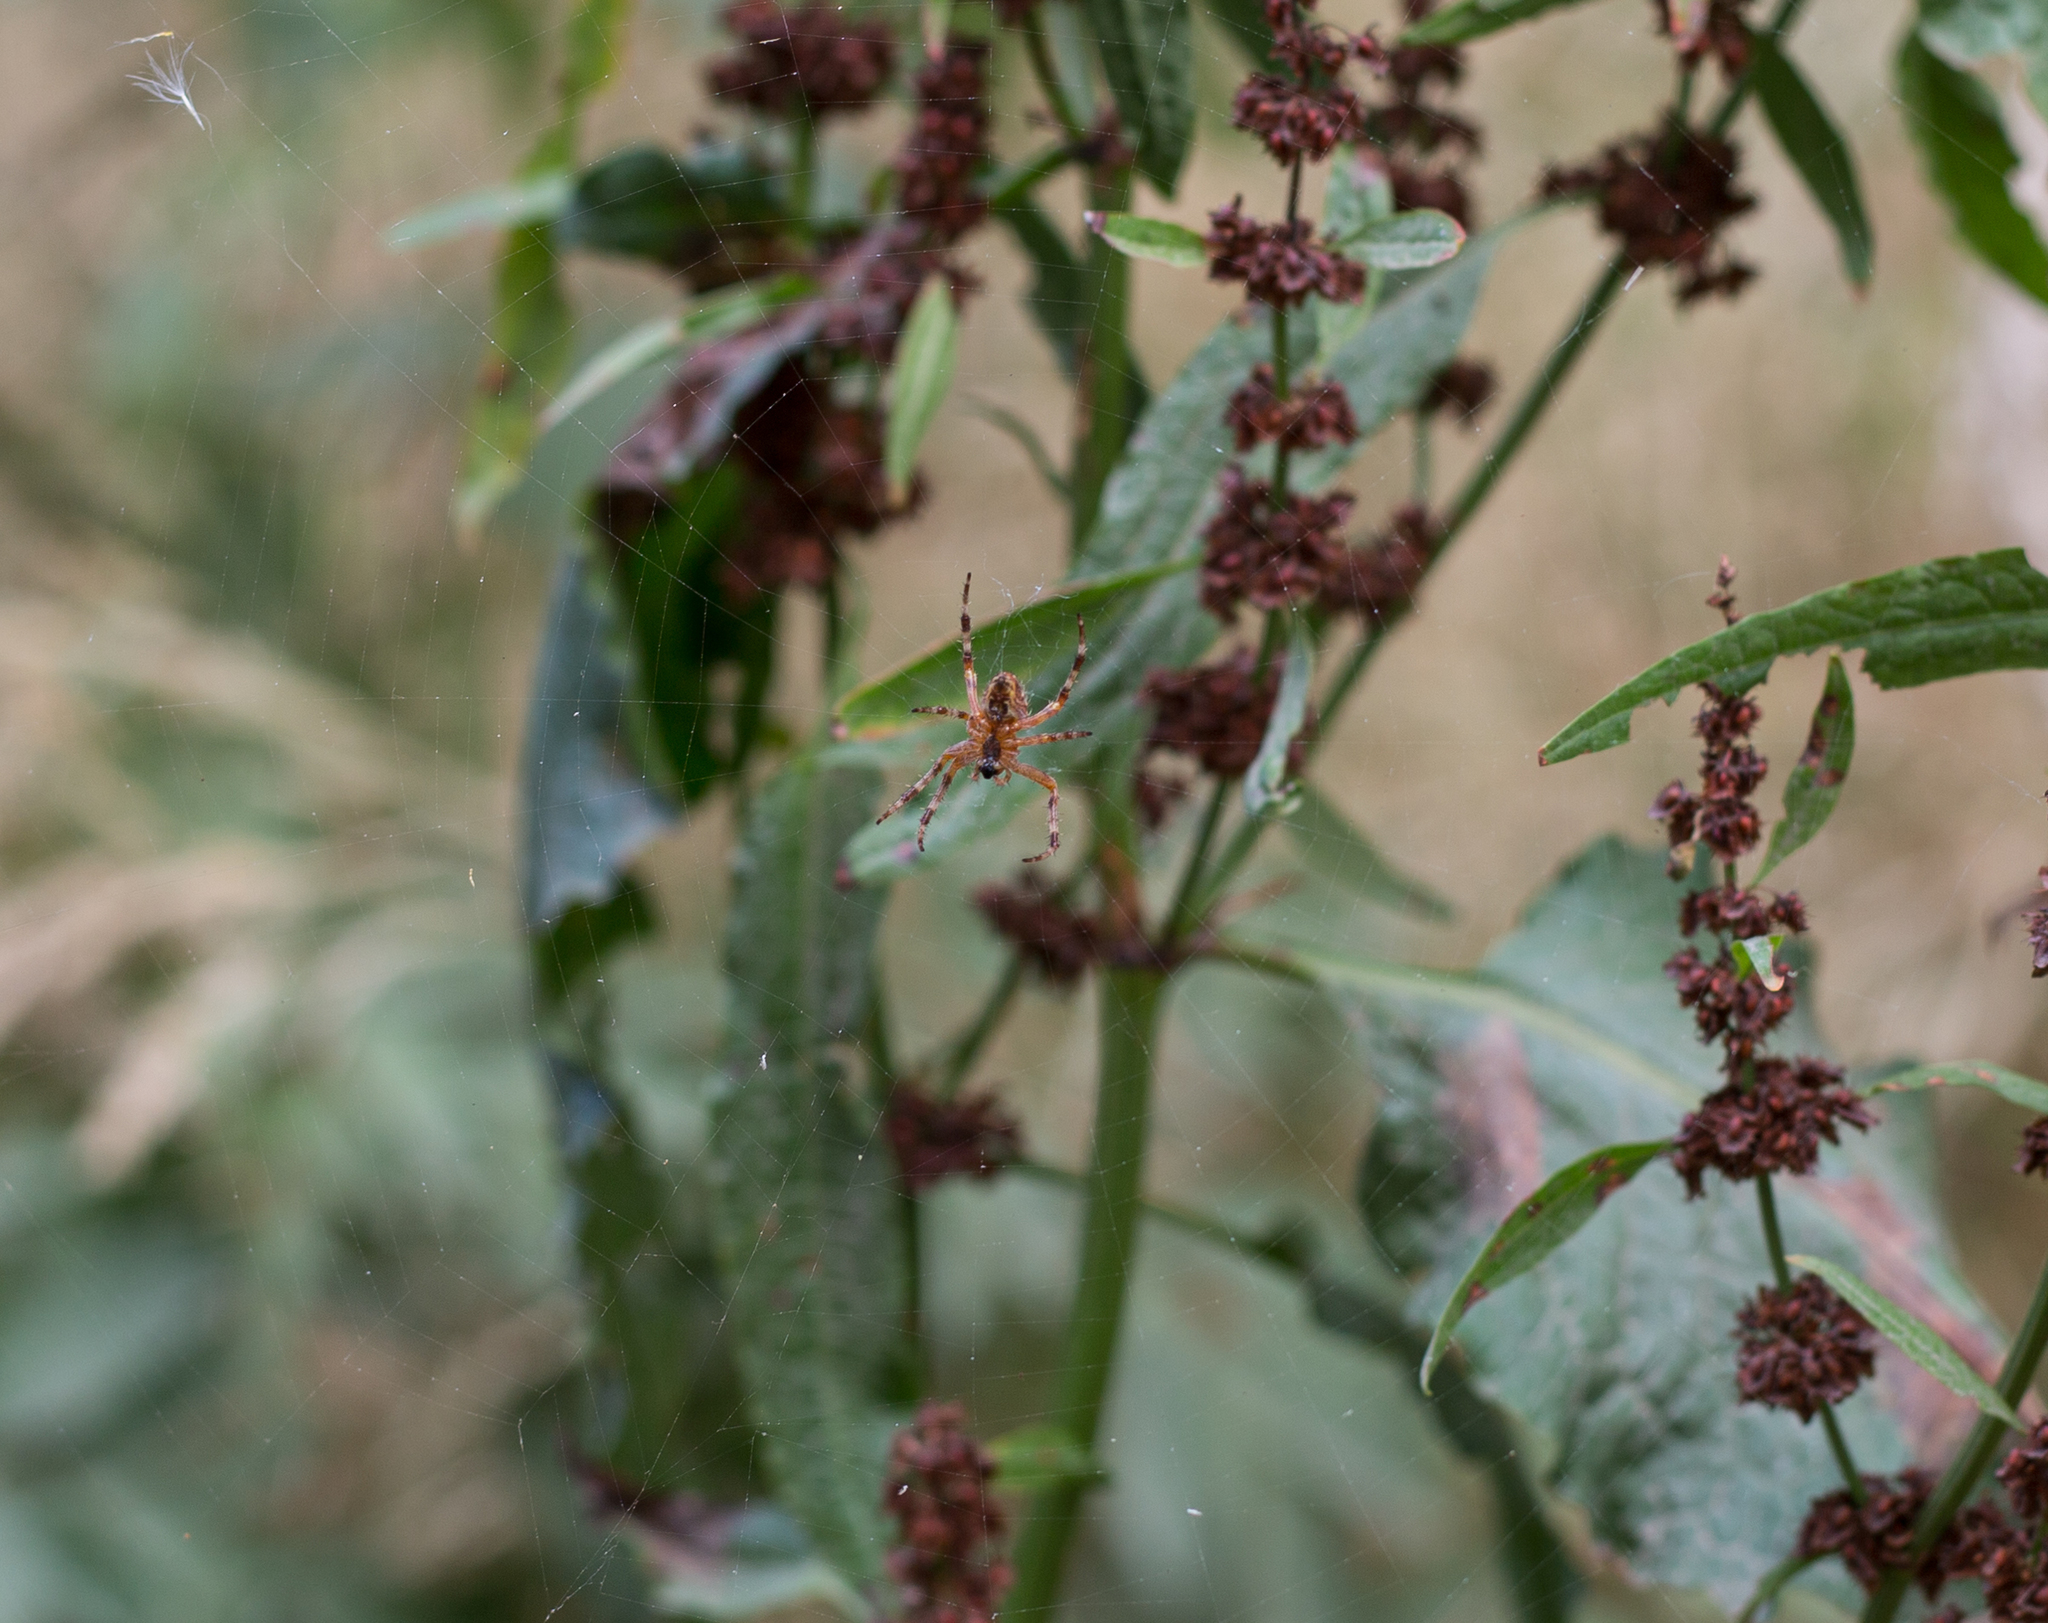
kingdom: Animalia
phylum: Arthropoda
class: Arachnida
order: Araneae
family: Araneidae
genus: Araneus
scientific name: Araneus diadematus
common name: Cross orbweaver
